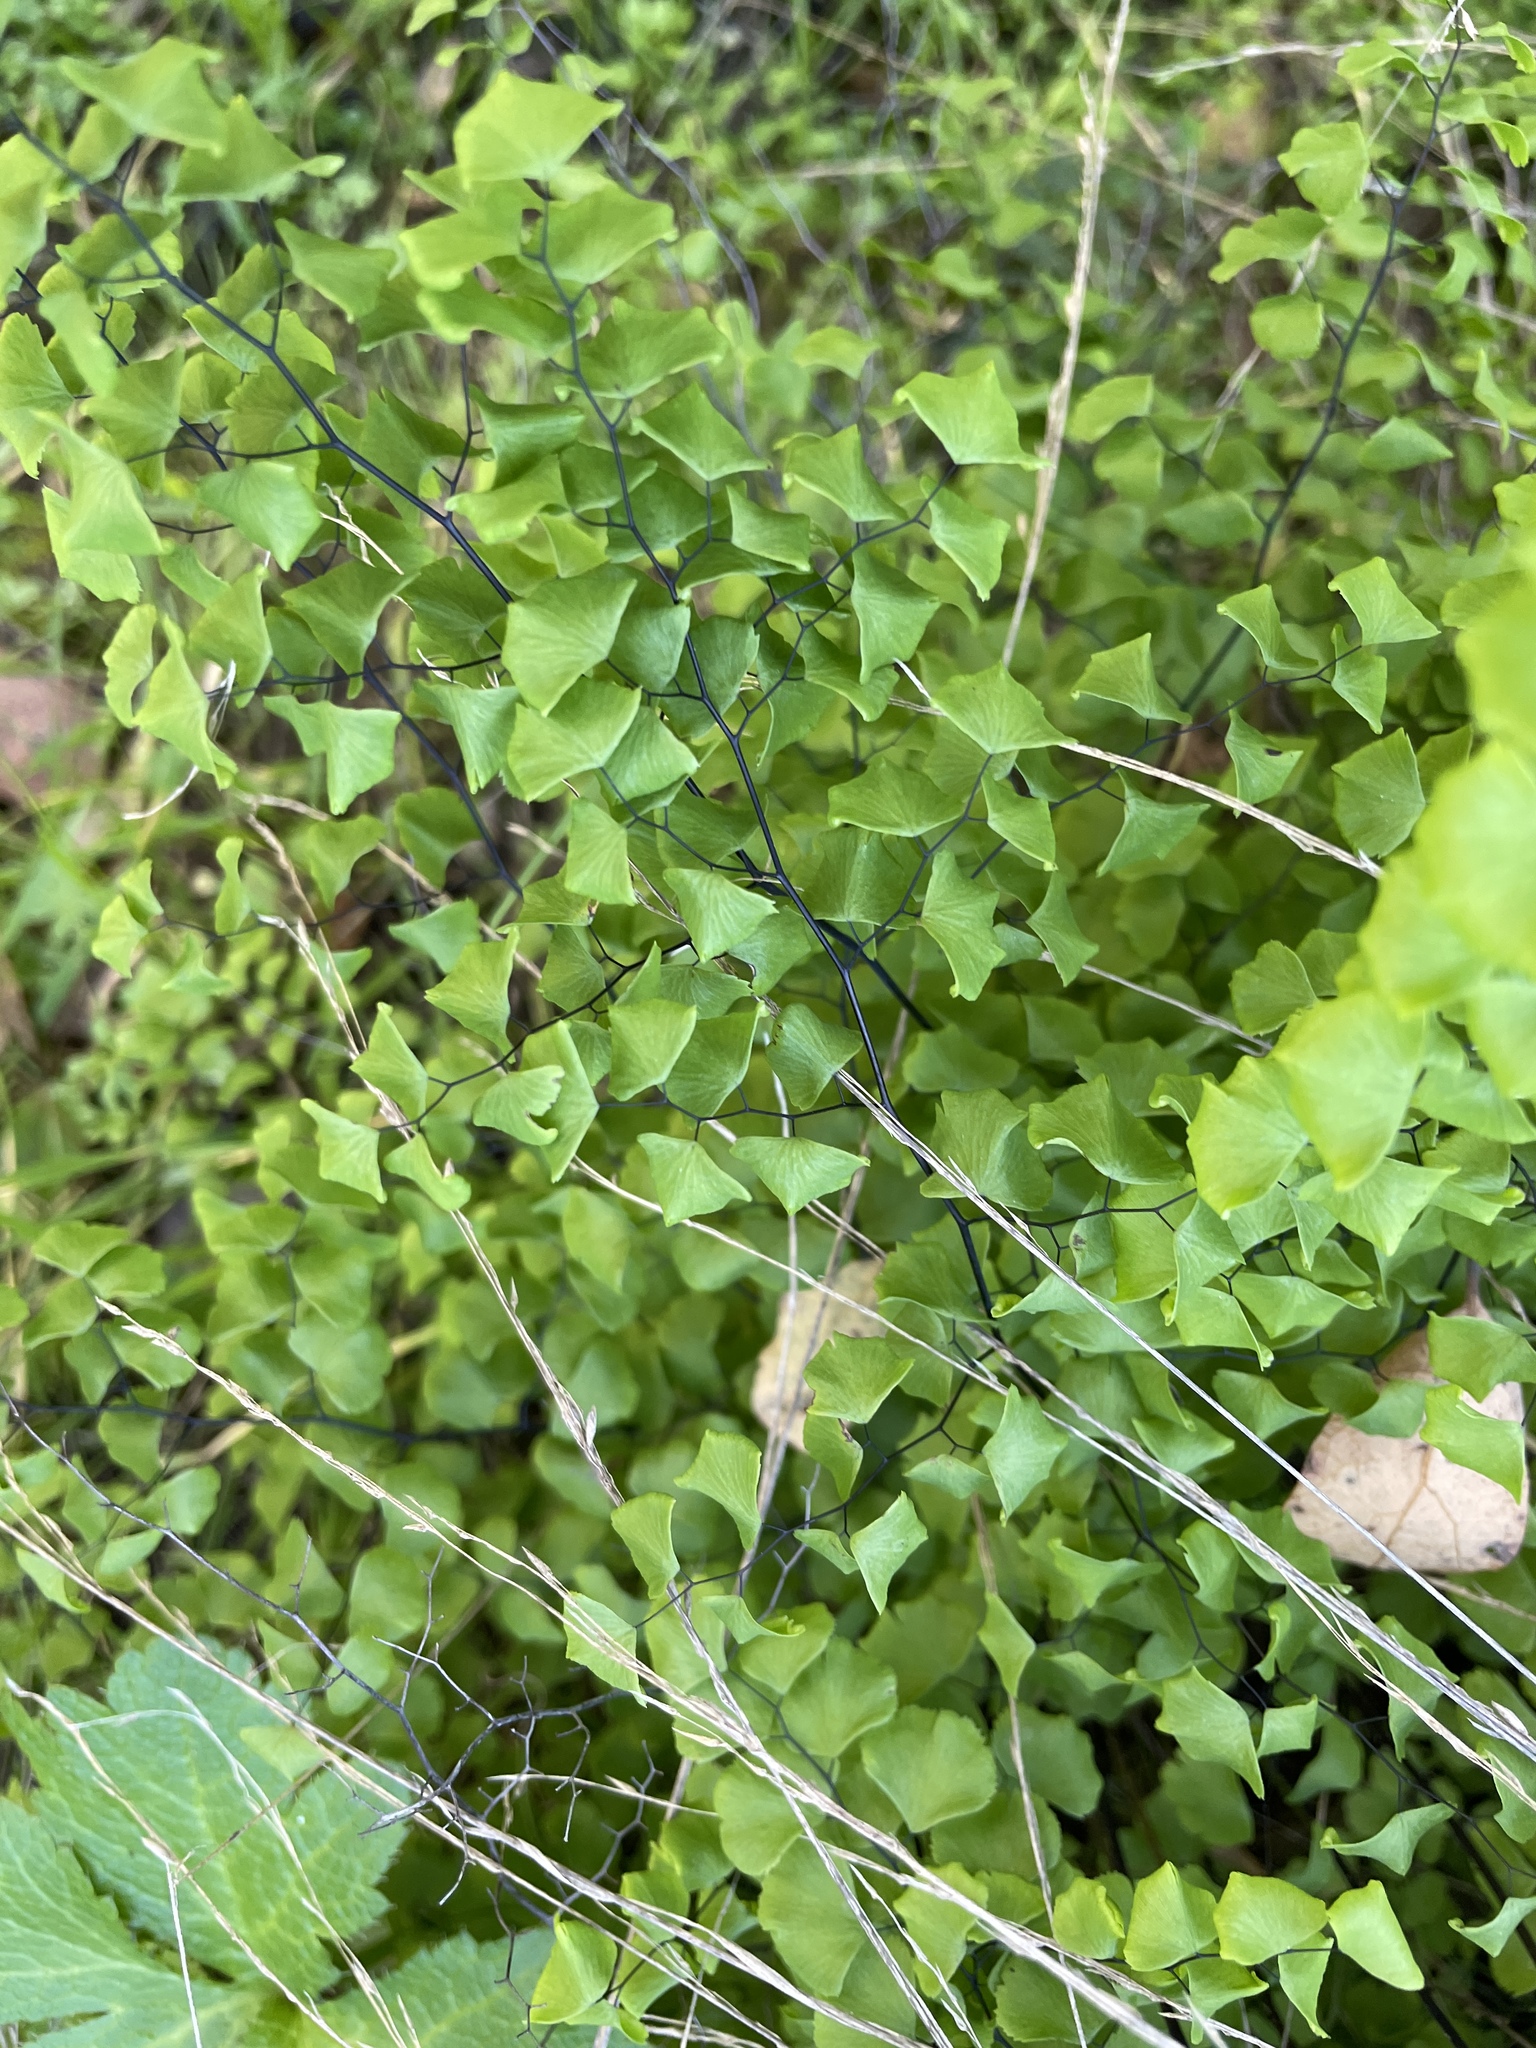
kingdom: Plantae
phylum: Tracheophyta
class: Polypodiopsida
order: Polypodiales
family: Pteridaceae
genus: Adiantum
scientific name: Adiantum jordanii
